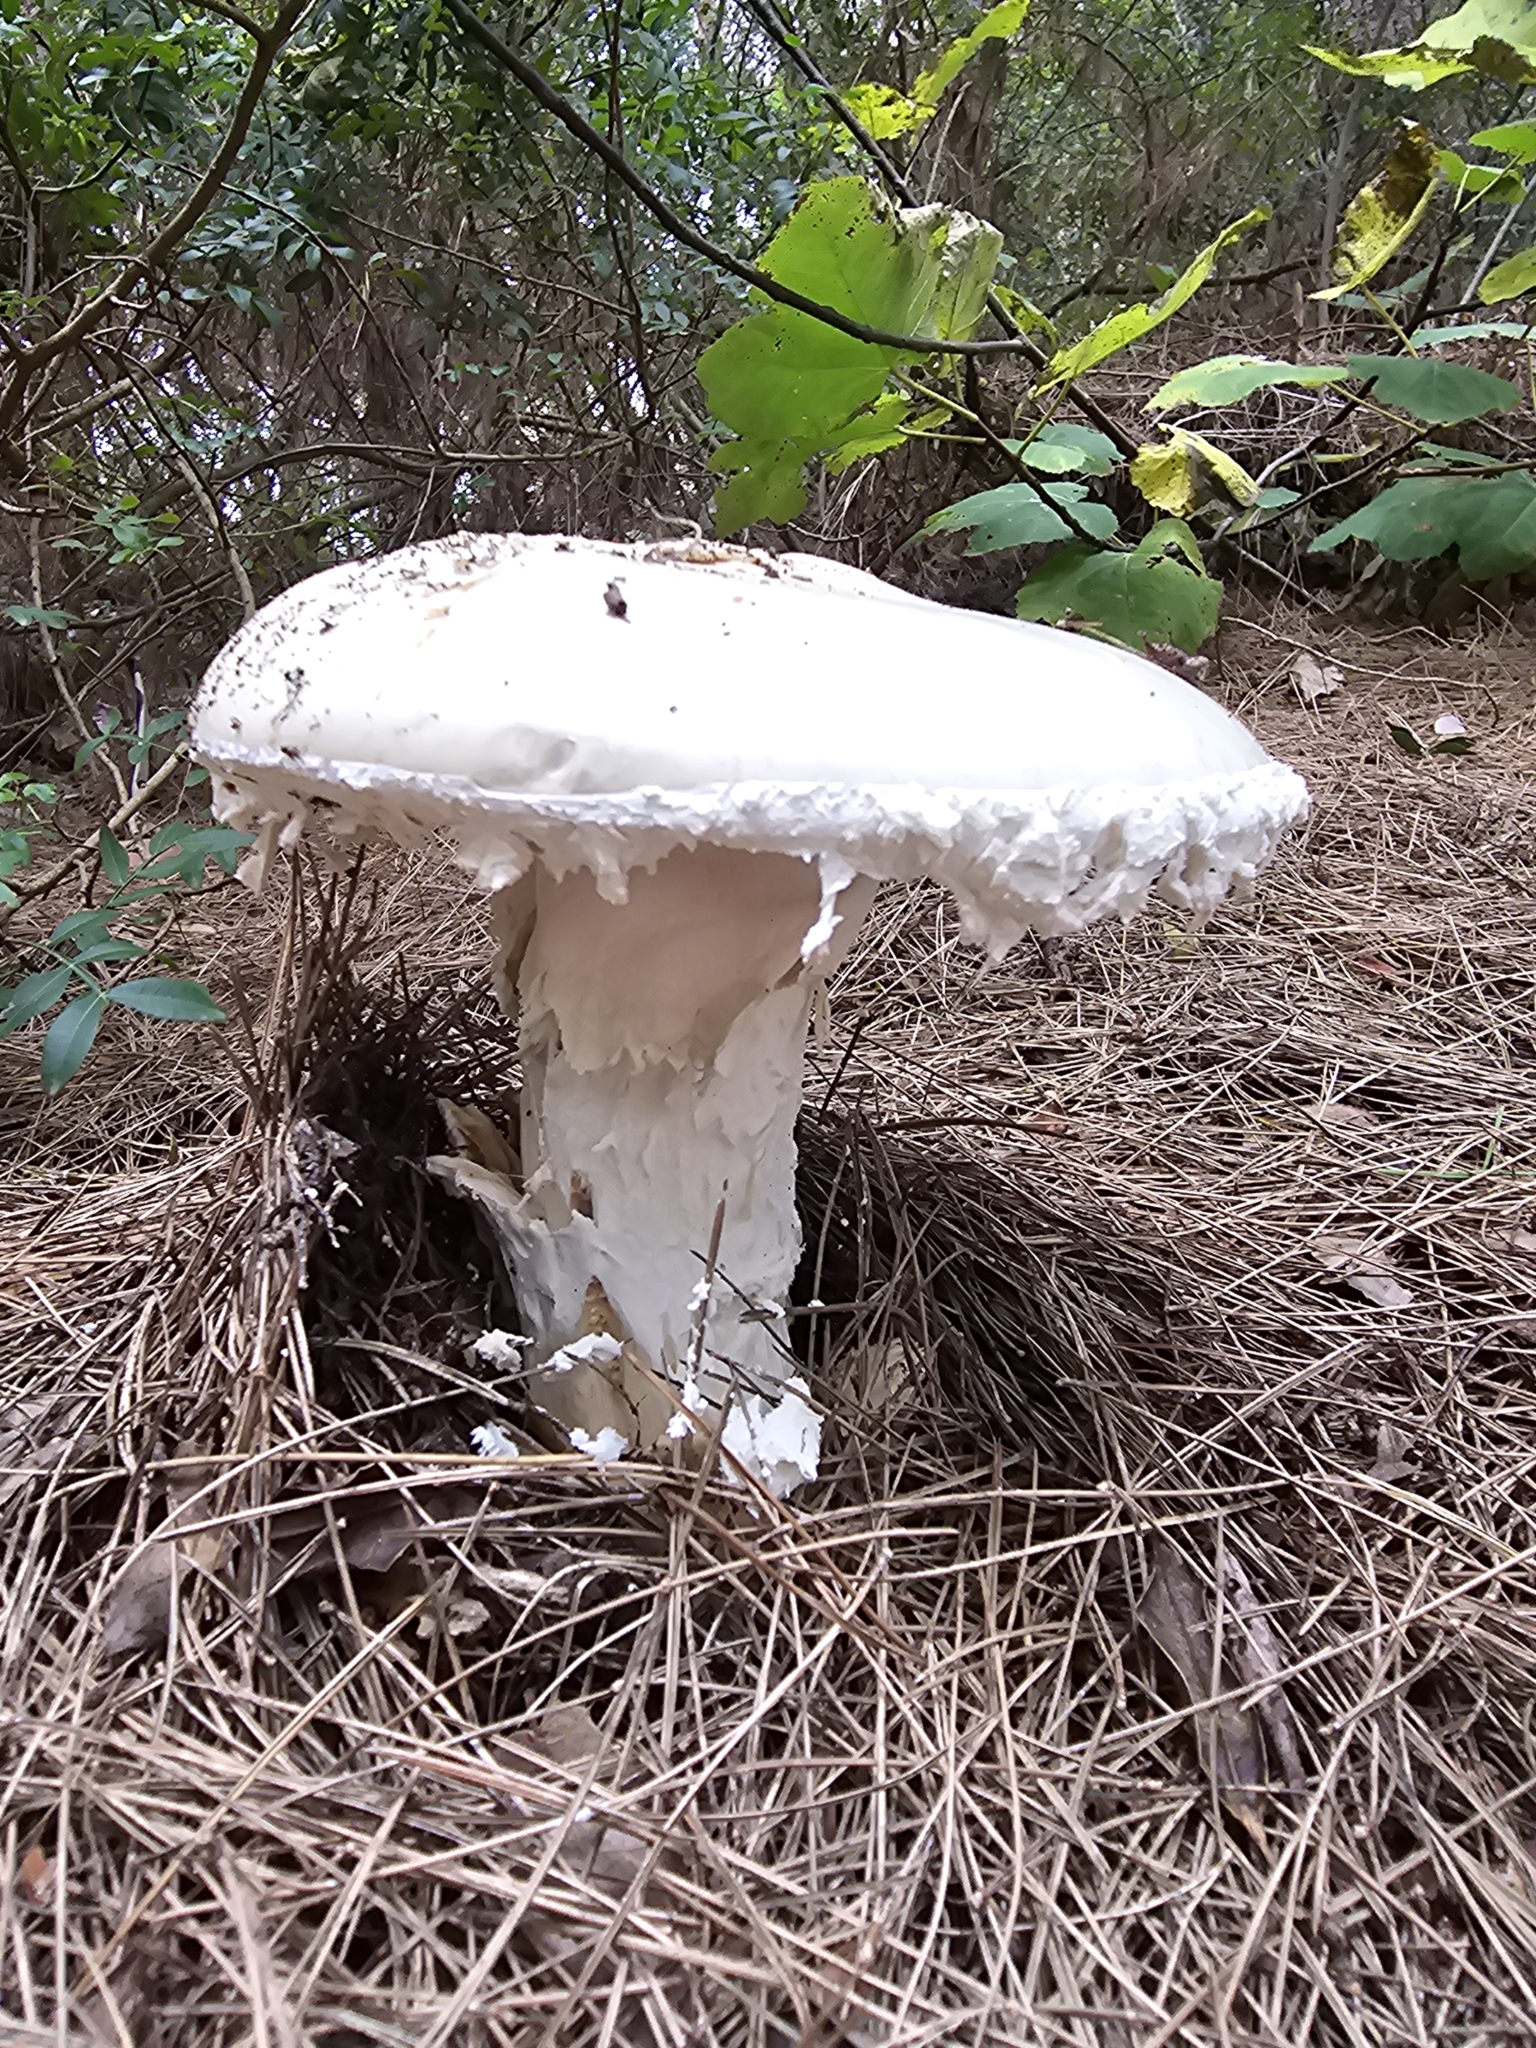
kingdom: Fungi
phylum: Basidiomycota
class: Agaricomycetes
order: Agaricales
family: Amanitaceae
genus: Amanita
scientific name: Amanita ovoidea
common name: Bearded amanita
